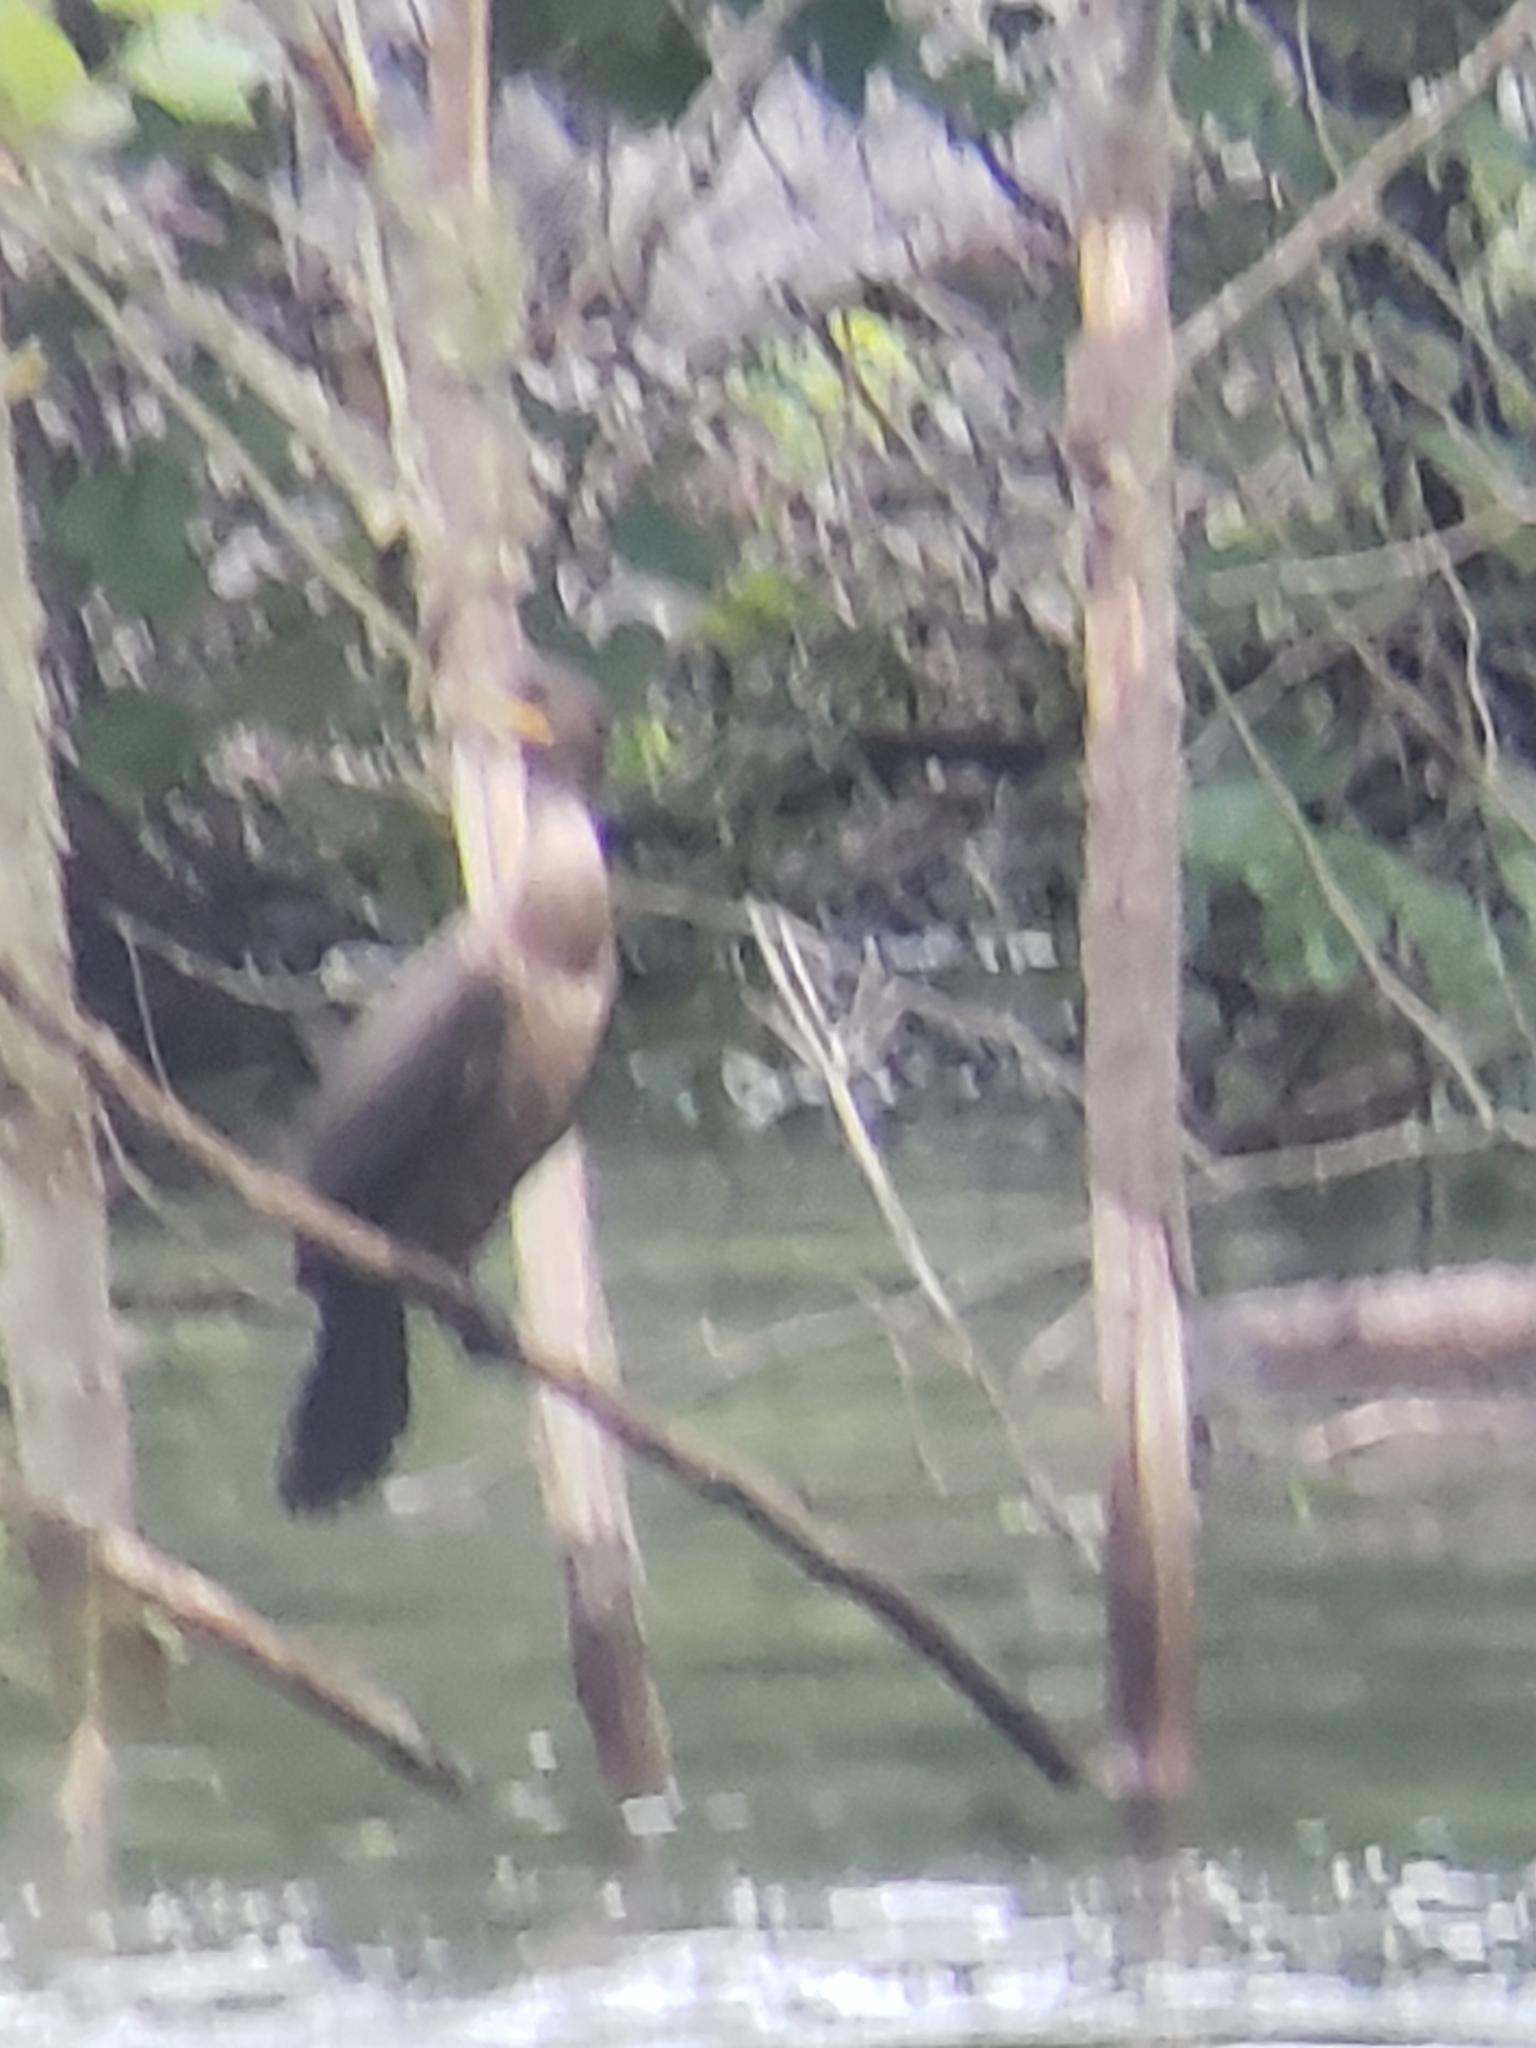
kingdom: Animalia
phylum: Chordata
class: Aves
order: Suliformes
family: Phalacrocoracidae
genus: Phalacrocorax
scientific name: Phalacrocorax auritus
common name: Double-crested cormorant
